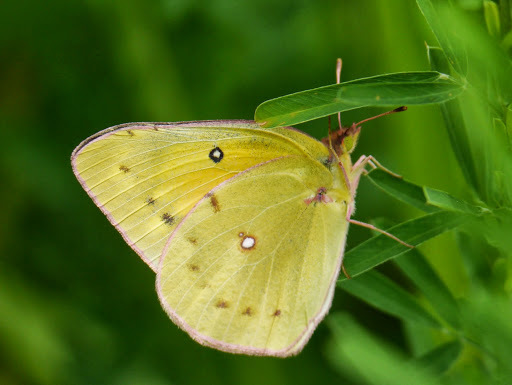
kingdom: Animalia
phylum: Arthropoda
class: Insecta
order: Lepidoptera
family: Pieridae
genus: Colias
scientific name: Colias eurytheme
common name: Alfalfa butterfly
